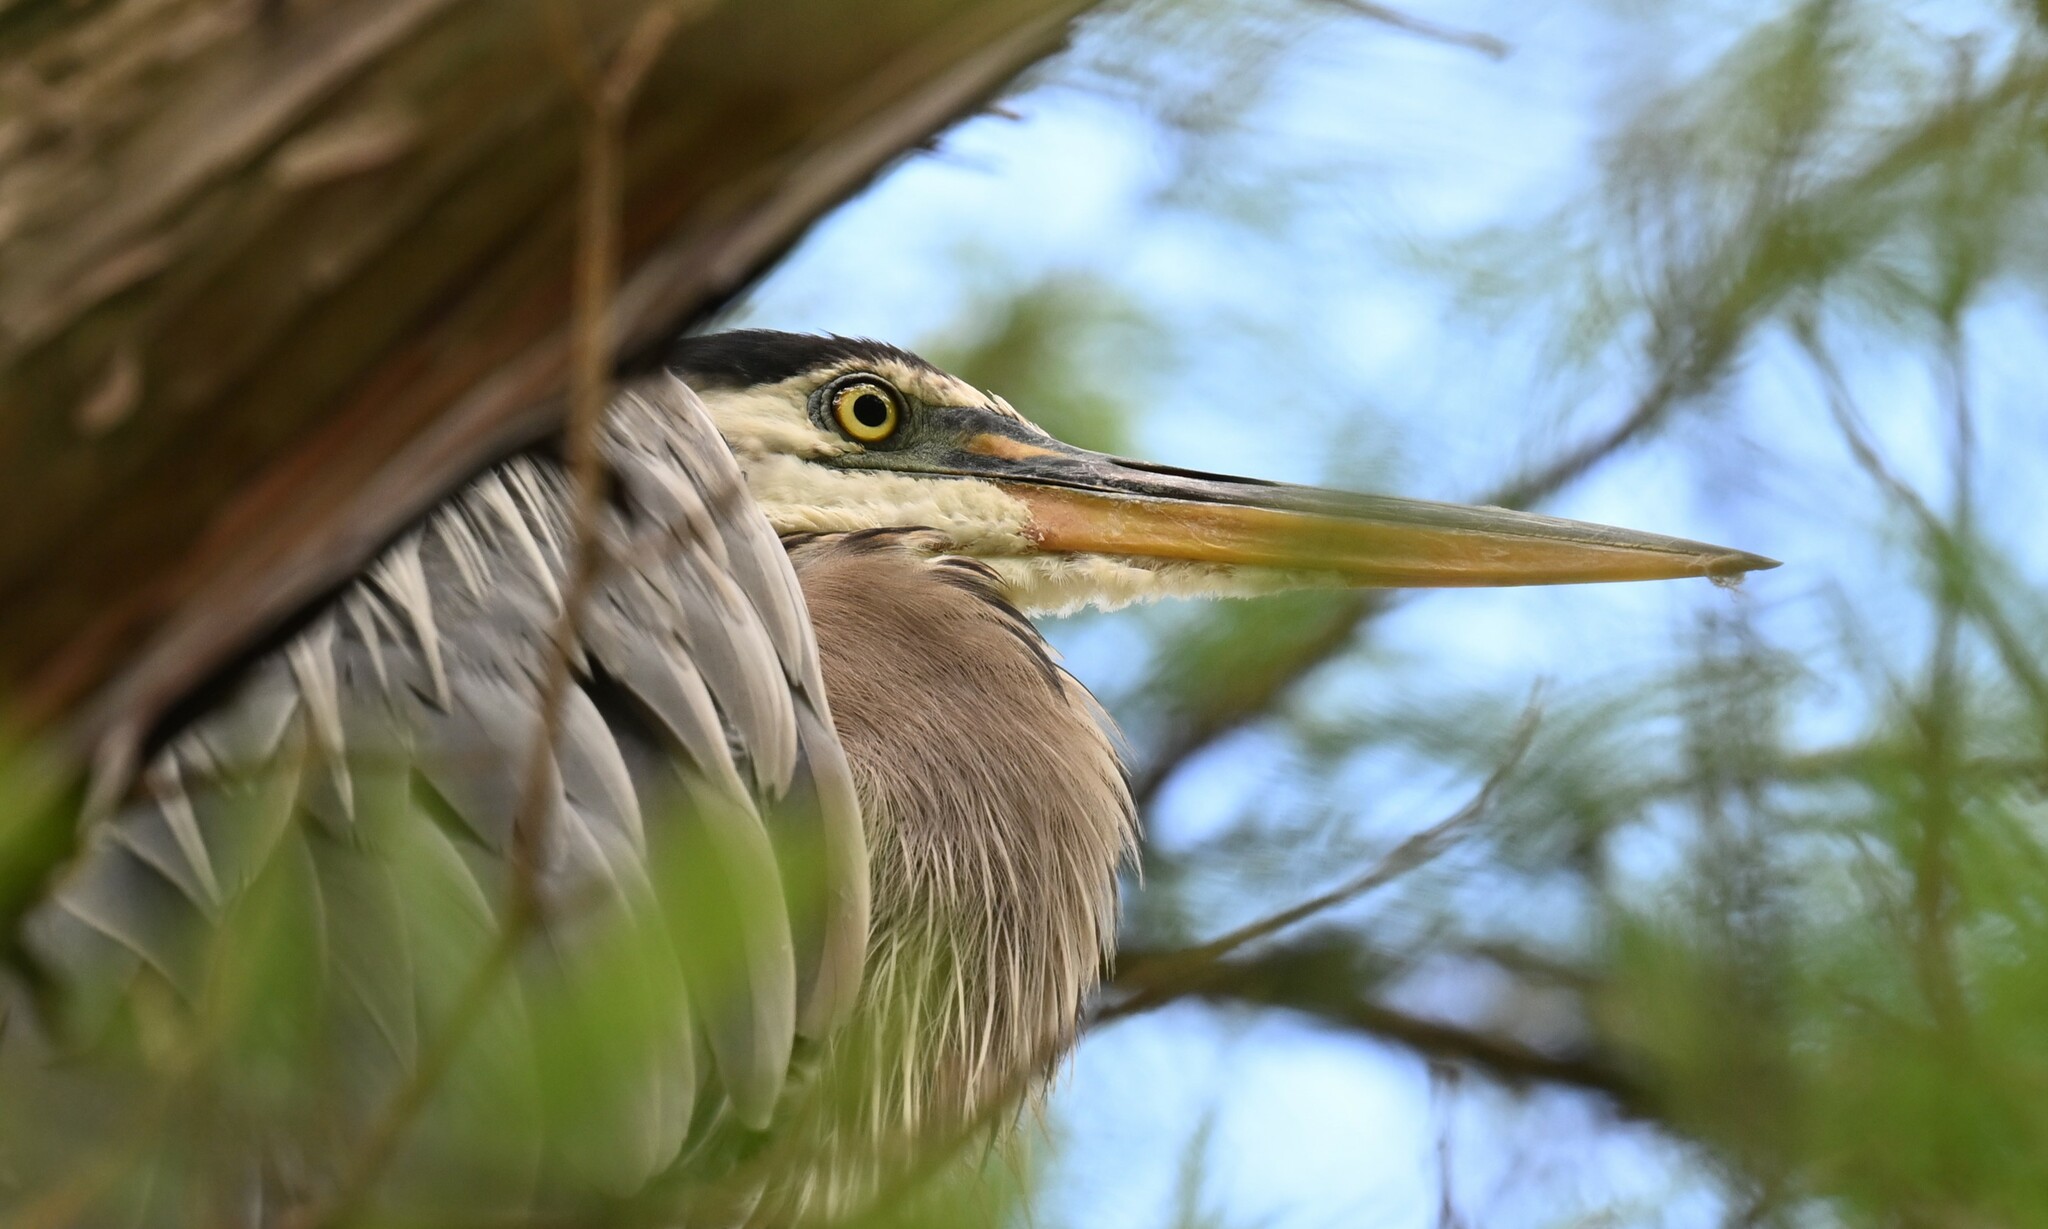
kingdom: Animalia
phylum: Chordata
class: Aves
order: Pelecaniformes
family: Ardeidae
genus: Ardea
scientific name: Ardea herodias
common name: Great blue heron
